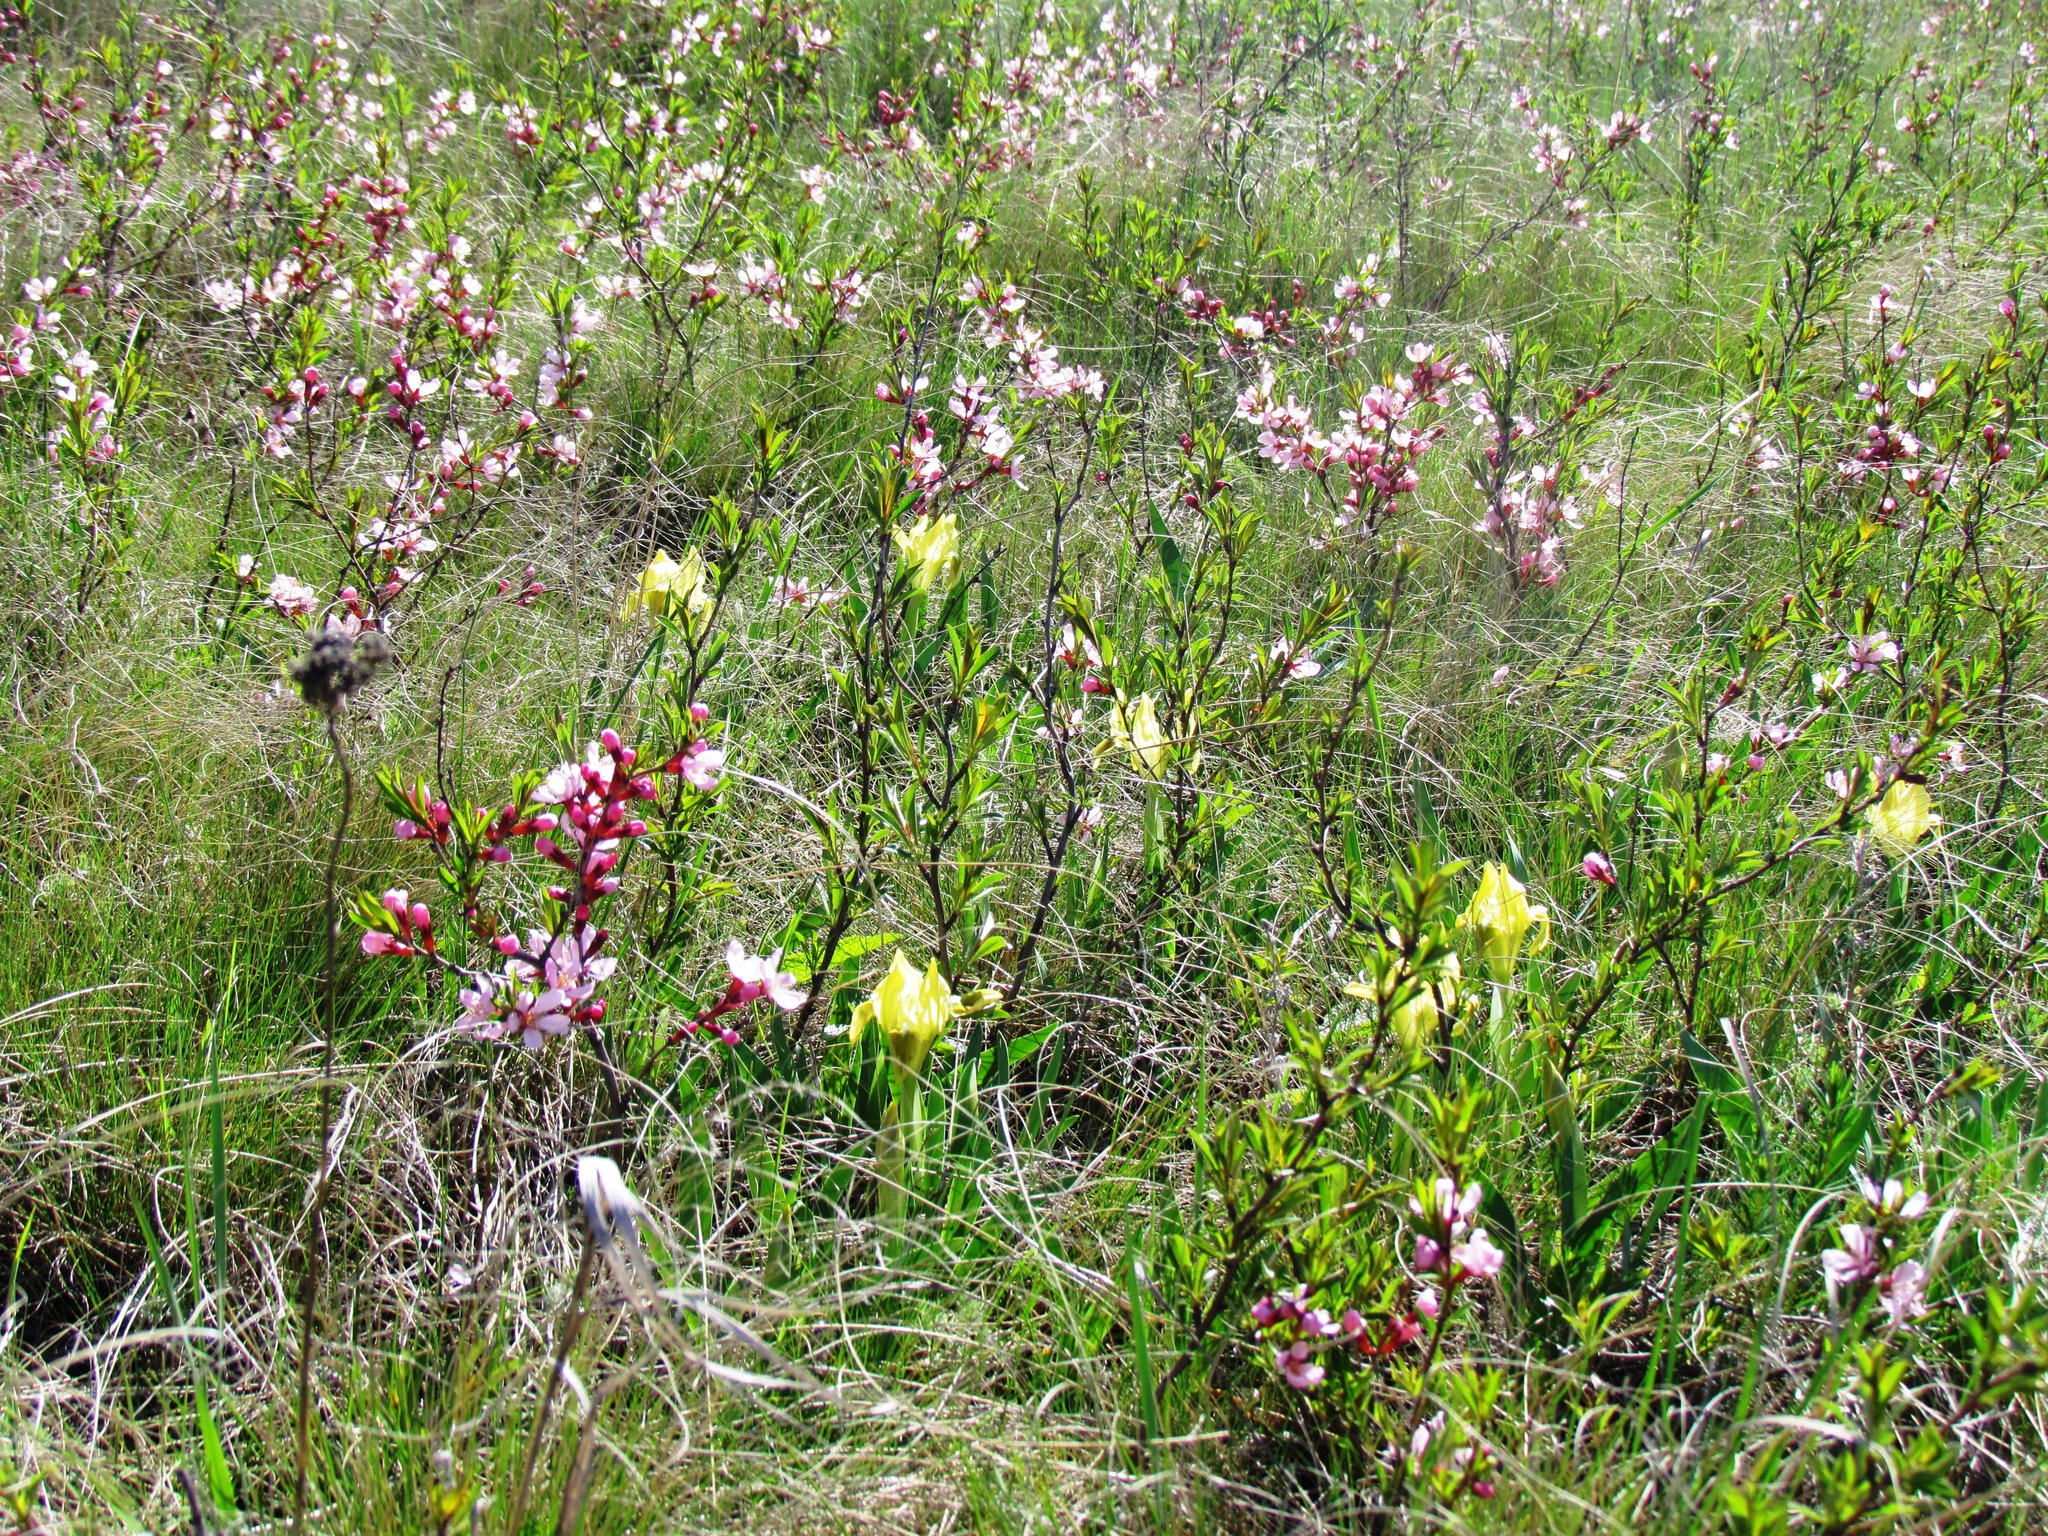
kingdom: Plantae
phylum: Tracheophyta
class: Liliopsida
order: Asparagales
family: Iridaceae
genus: Iris
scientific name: Iris pumila
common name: Dwarf iris
